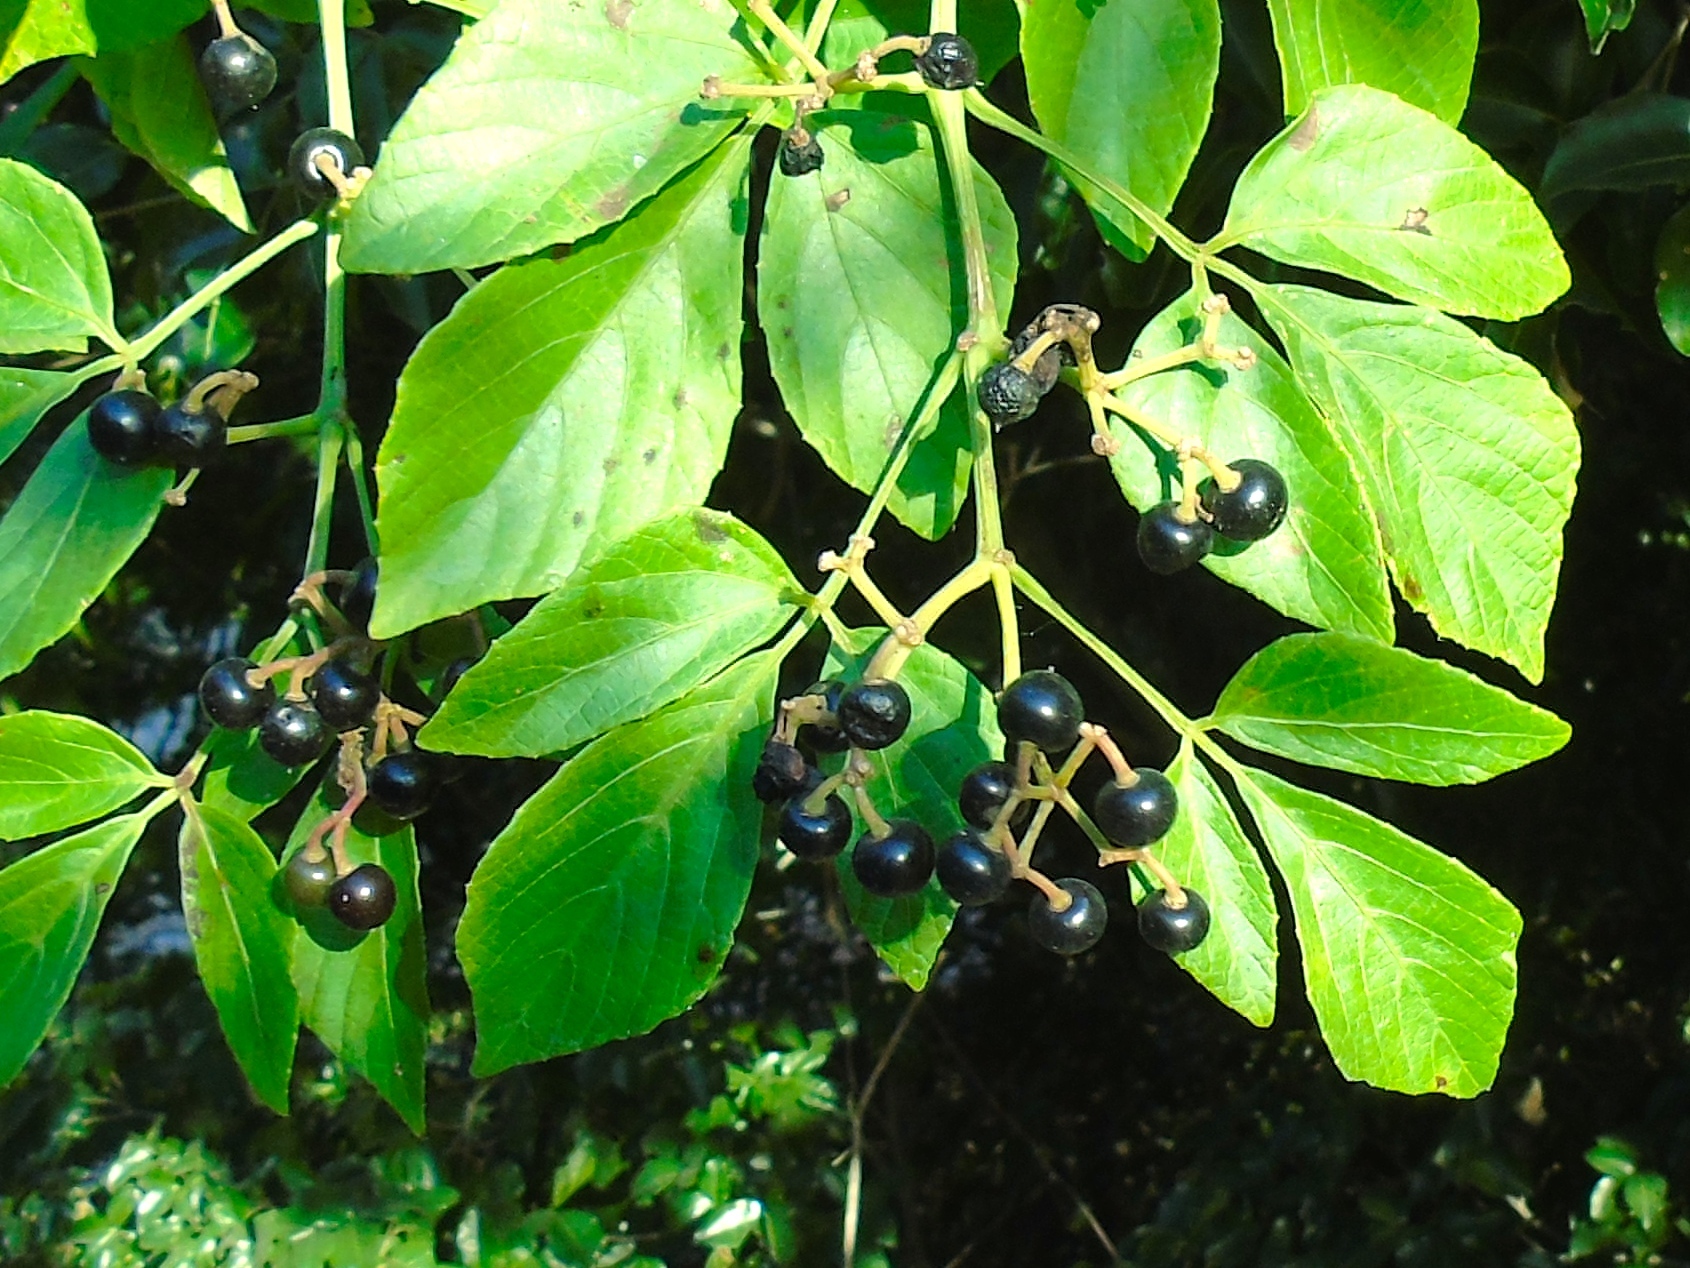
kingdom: Plantae
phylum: Tracheophyta
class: Magnoliopsida
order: Vitales
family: Vitaceae
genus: Cissus
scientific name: Cissus verticillata
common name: Princess vine
